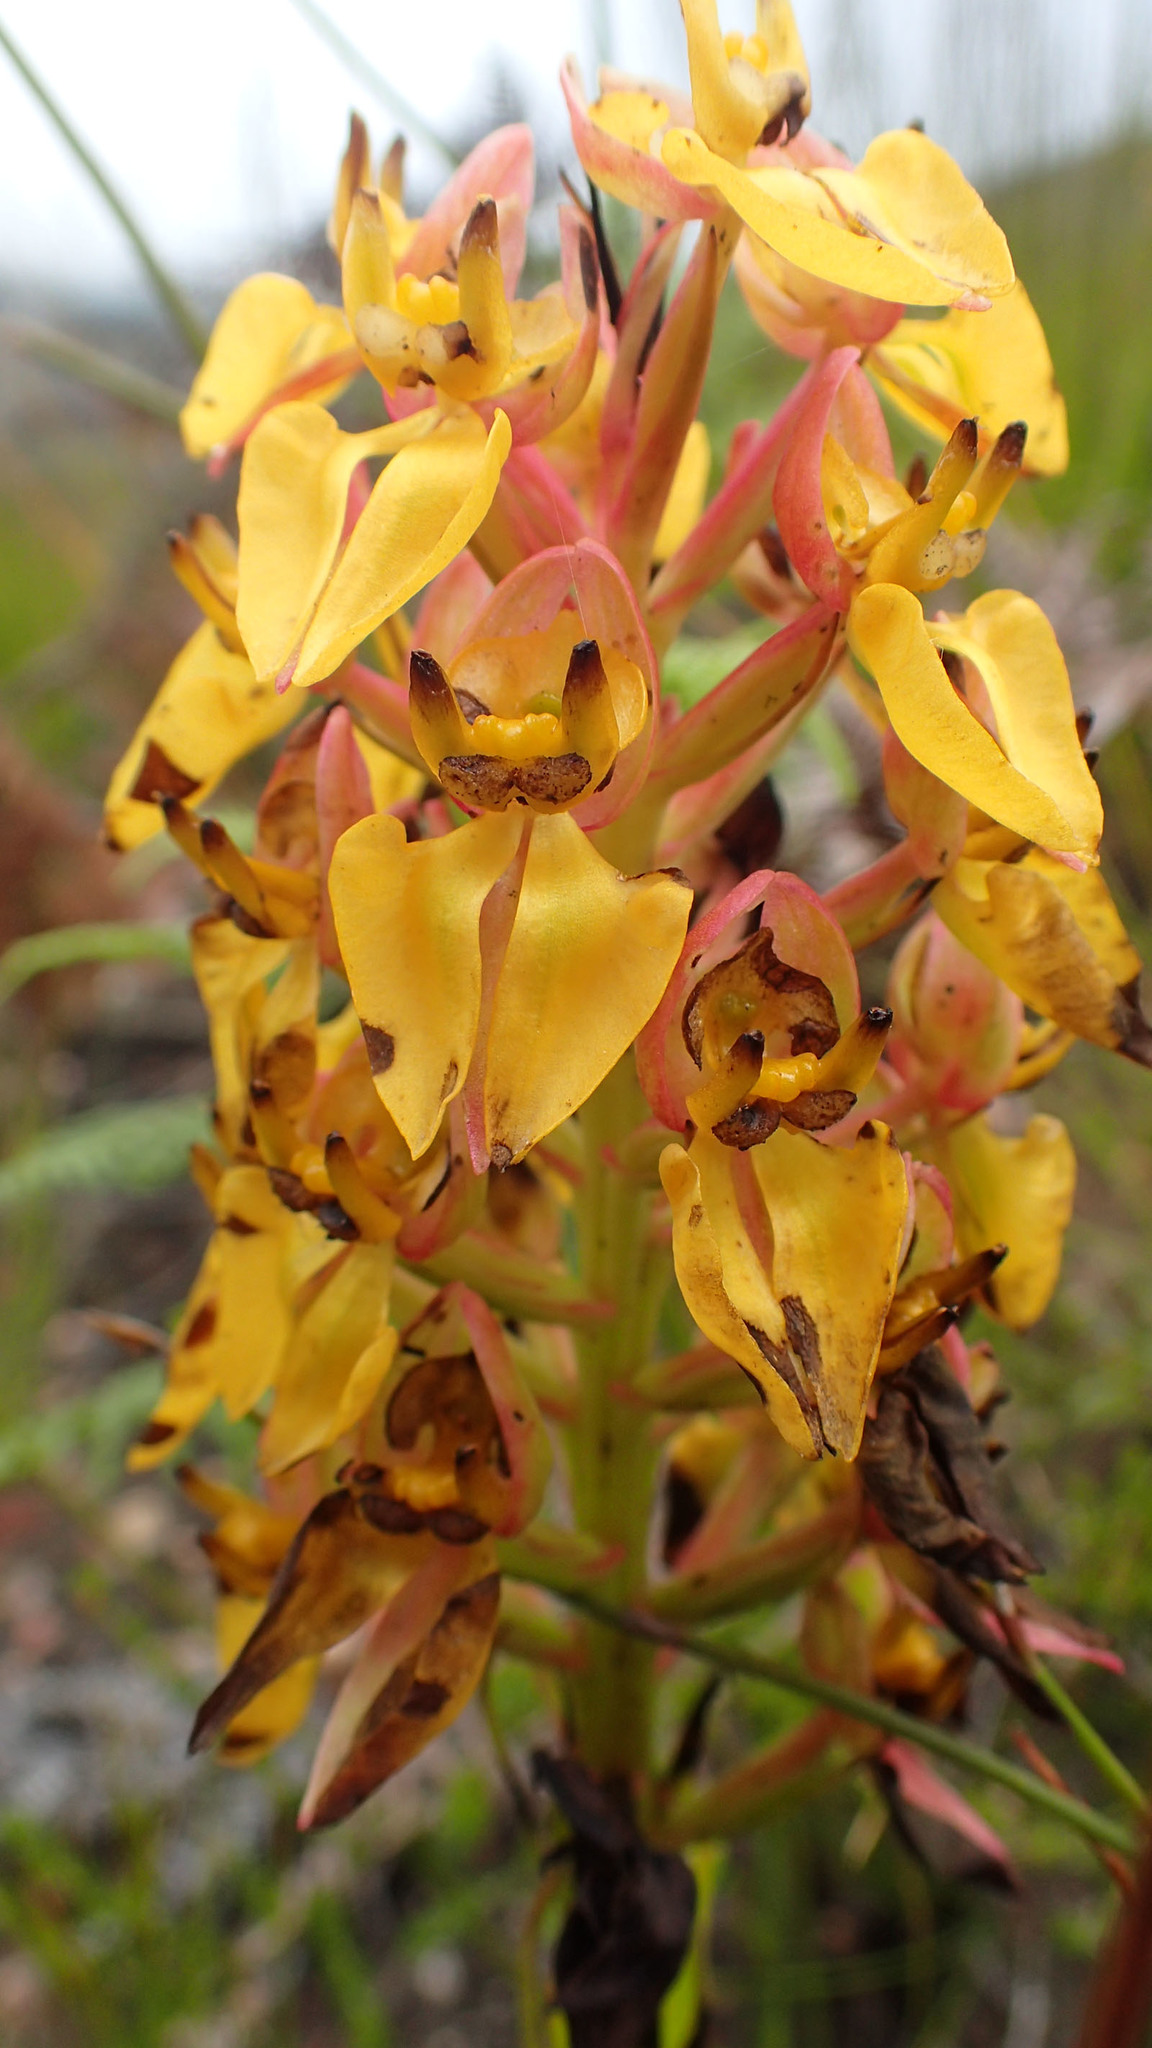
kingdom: Plantae
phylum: Tracheophyta
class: Liliopsida
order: Asparagales
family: Orchidaceae
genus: Ceratandra
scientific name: Ceratandra atrata
